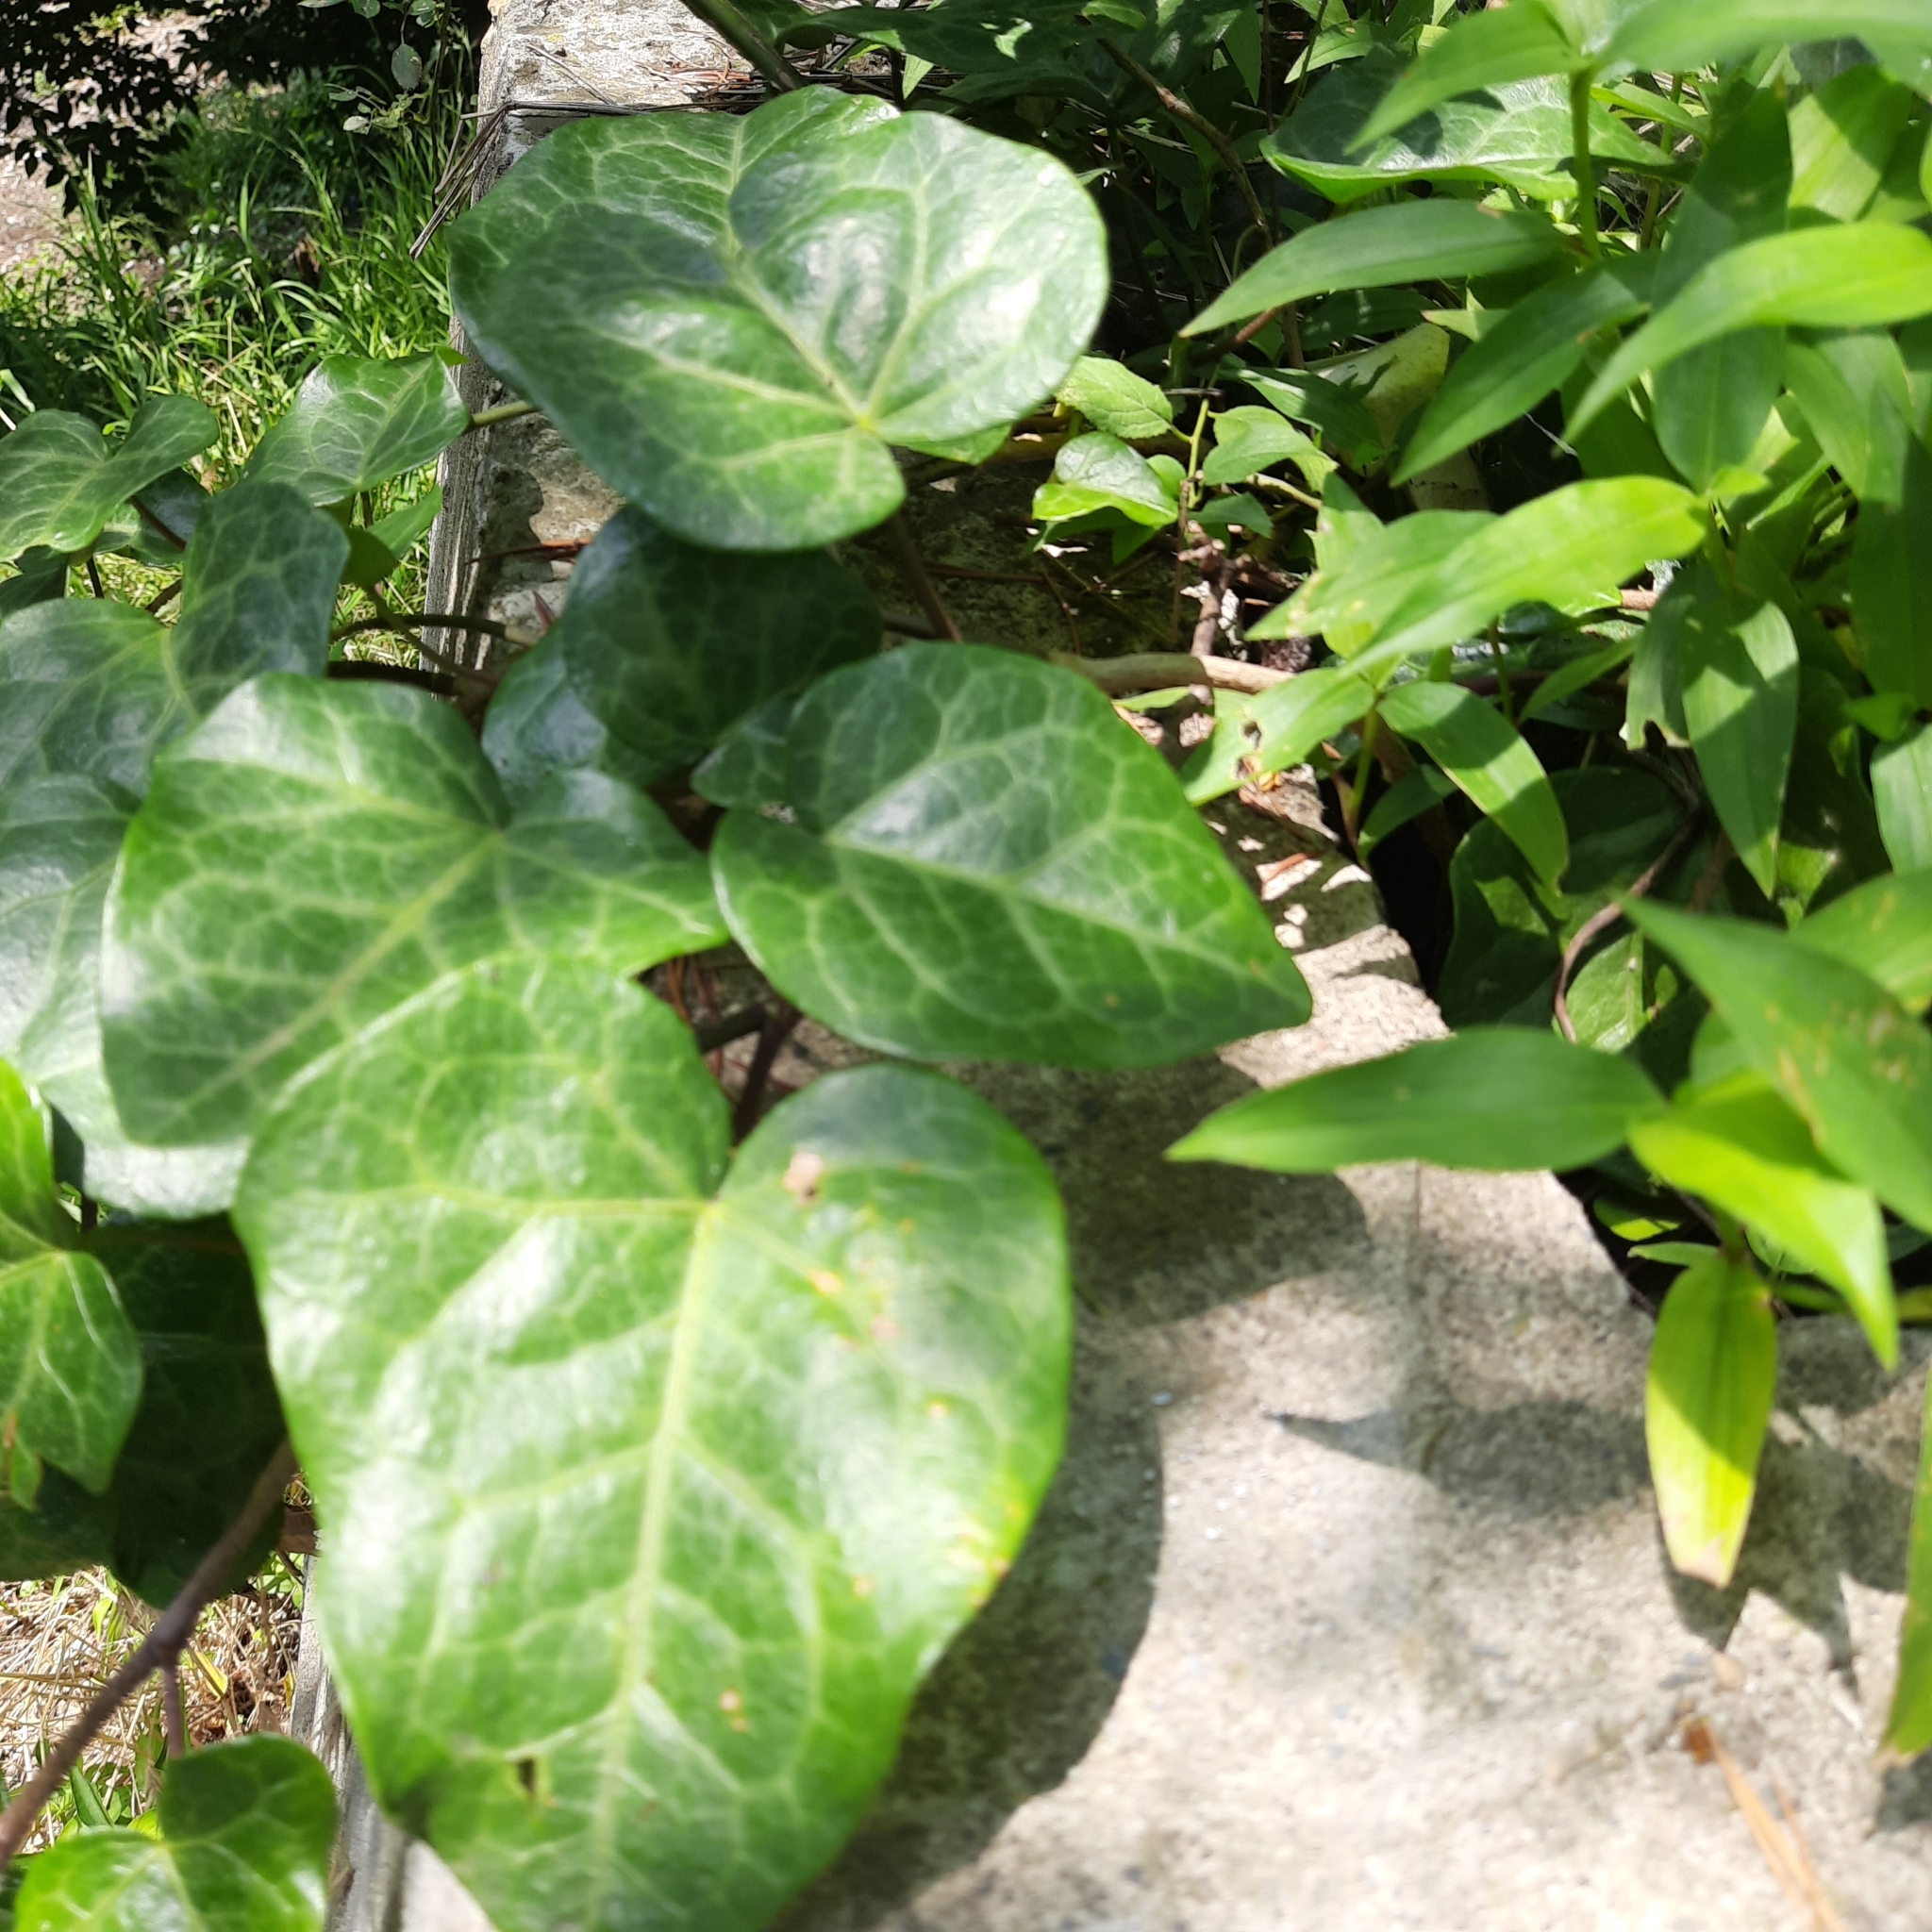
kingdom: Plantae
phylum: Tracheophyta
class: Magnoliopsida
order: Apiales
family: Araliaceae
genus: Hedera
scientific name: Hedera colchica
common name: Persian ivy
